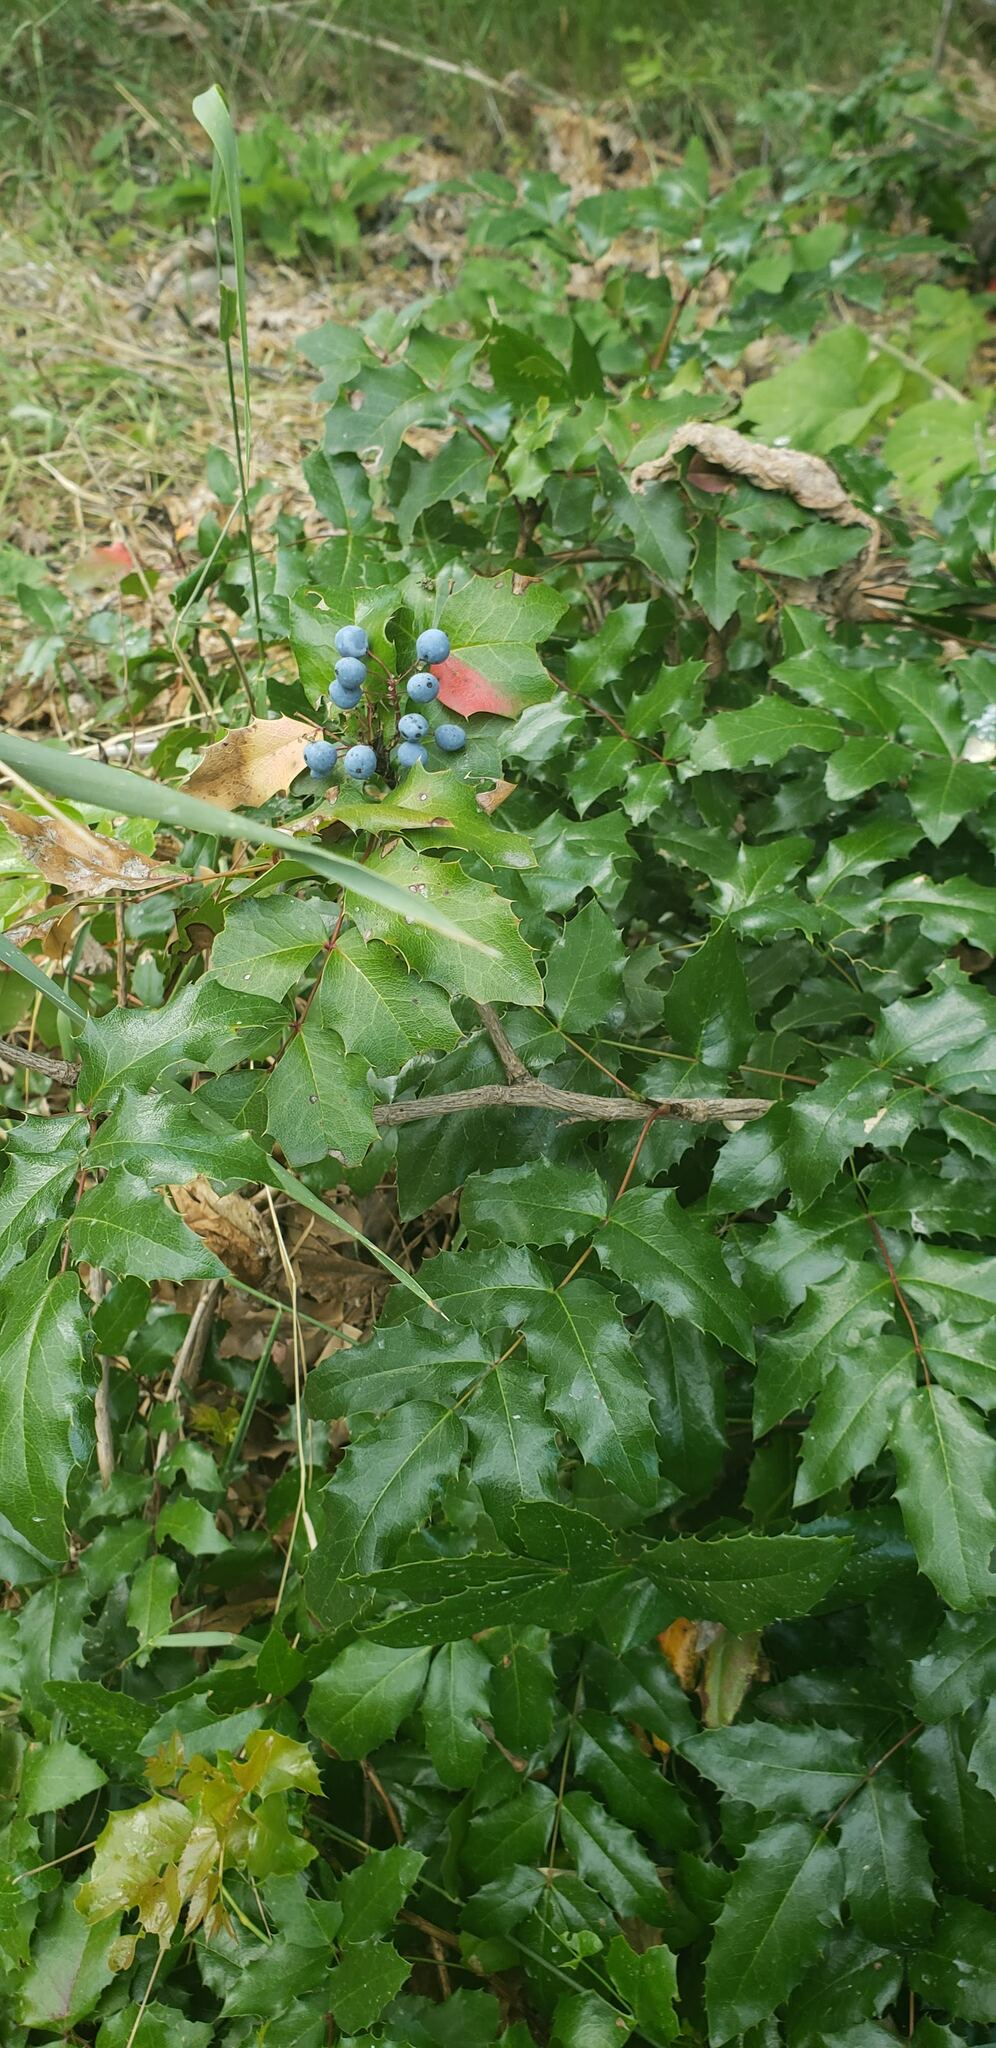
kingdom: Plantae
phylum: Tracheophyta
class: Magnoliopsida
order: Ranunculales
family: Berberidaceae
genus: Mahonia
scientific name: Mahonia aquifolium
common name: Oregon-grape
